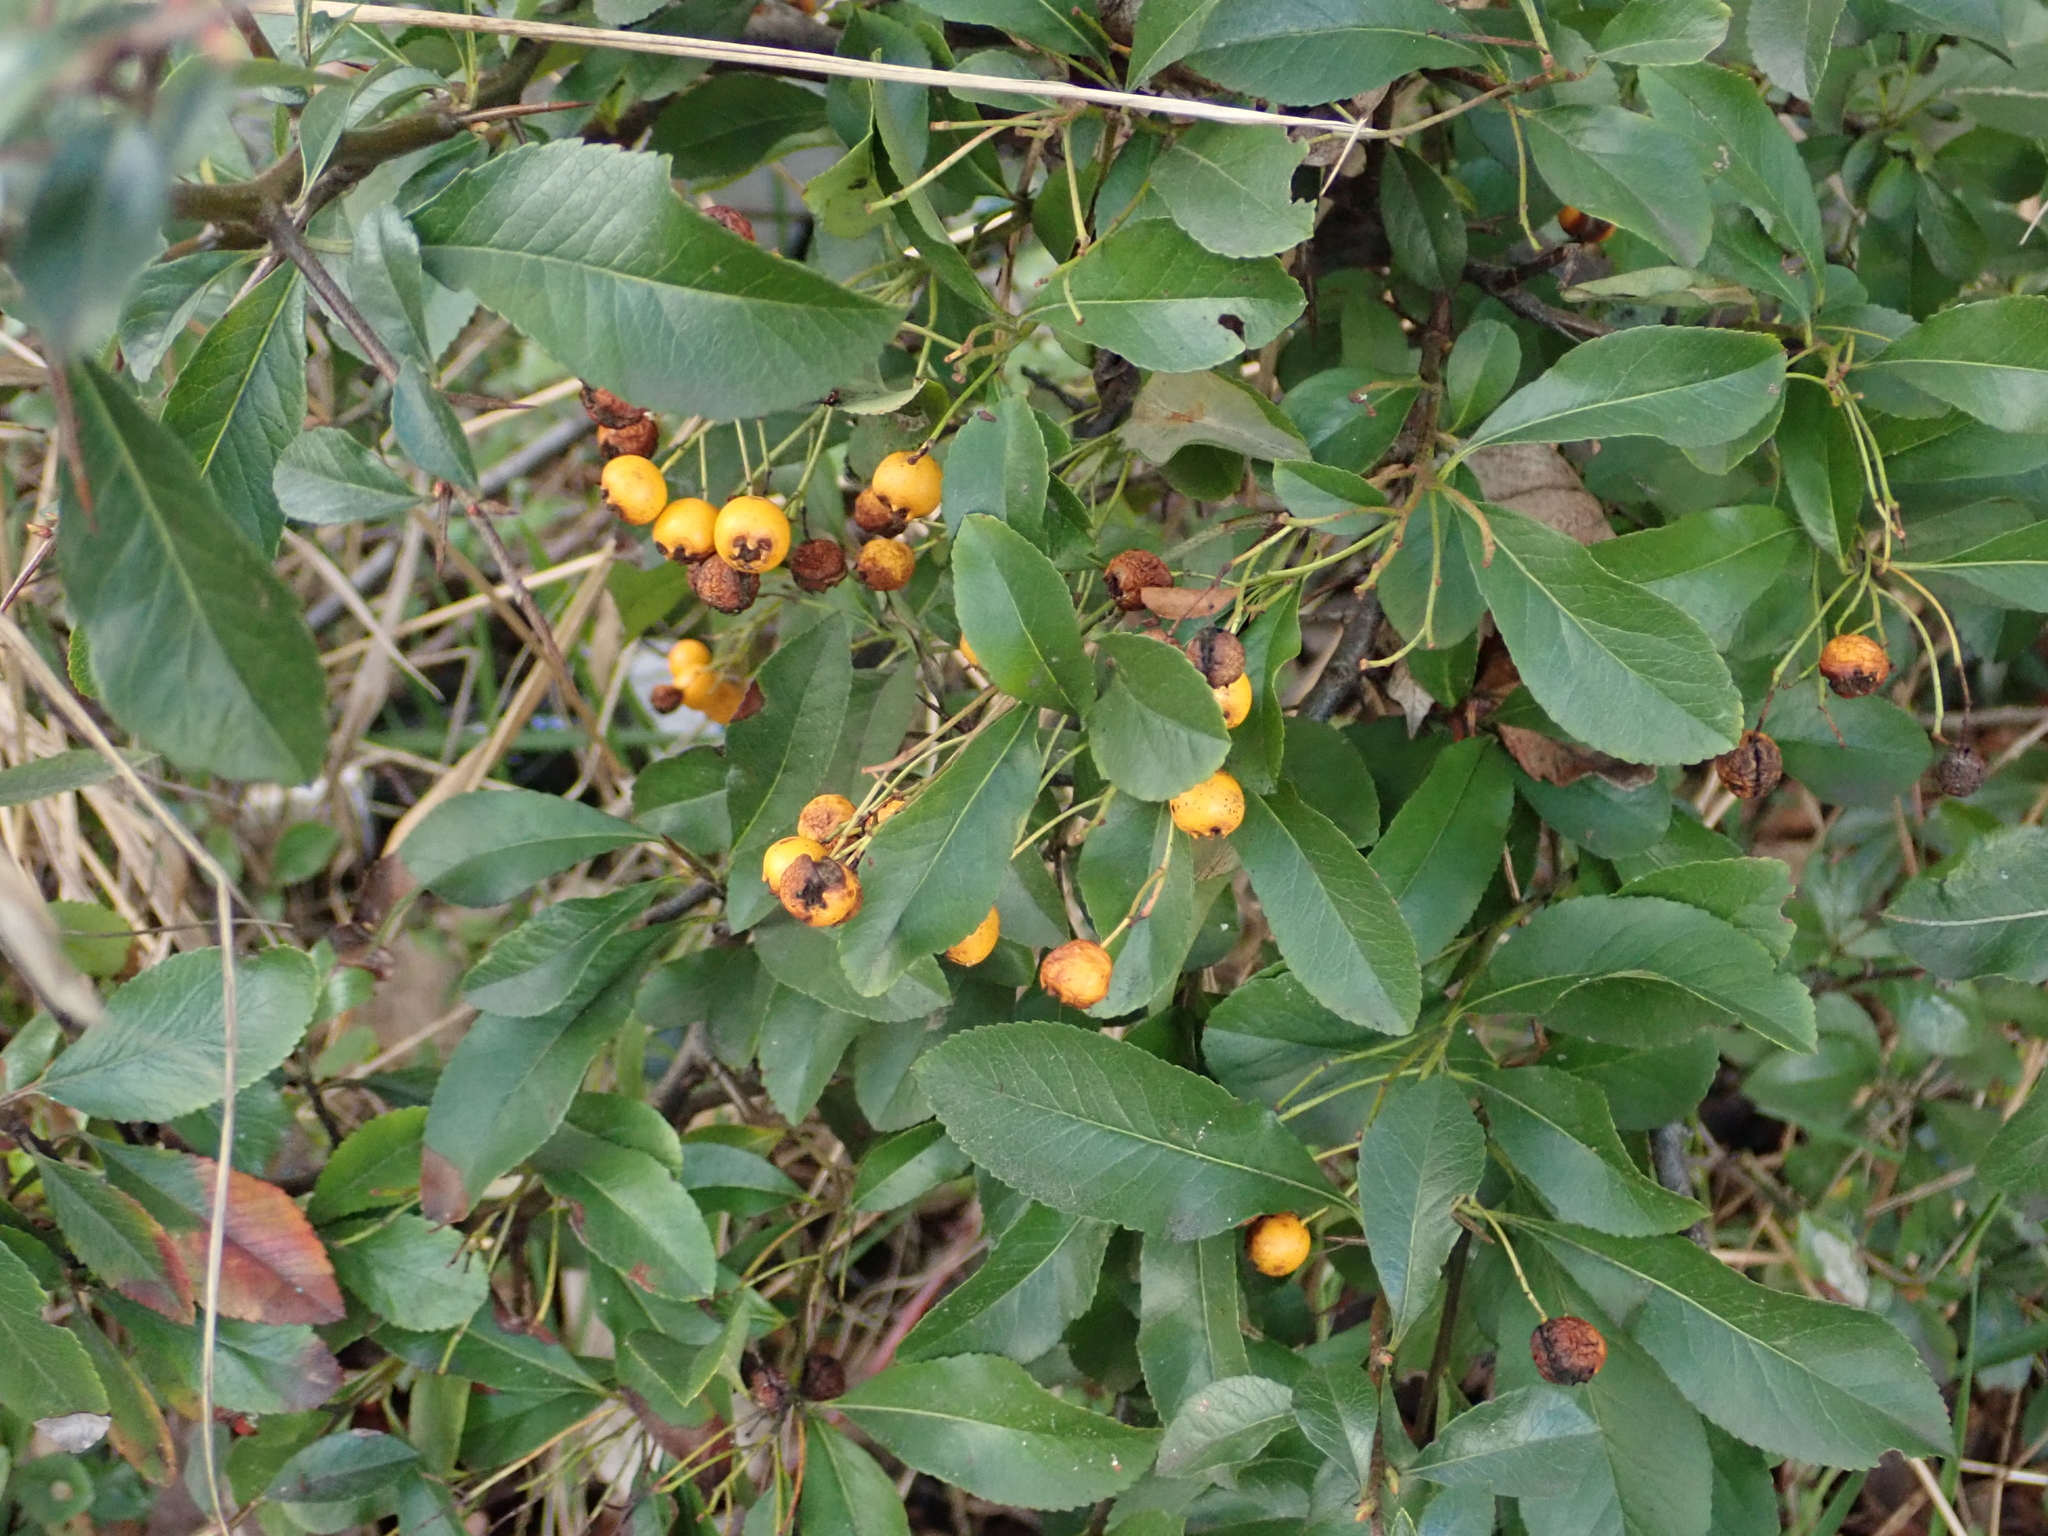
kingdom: Plantae
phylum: Tracheophyta
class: Magnoliopsida
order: Rosales
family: Rosaceae
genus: Pyracantha
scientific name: Pyracantha coccinea
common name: Firethorn
